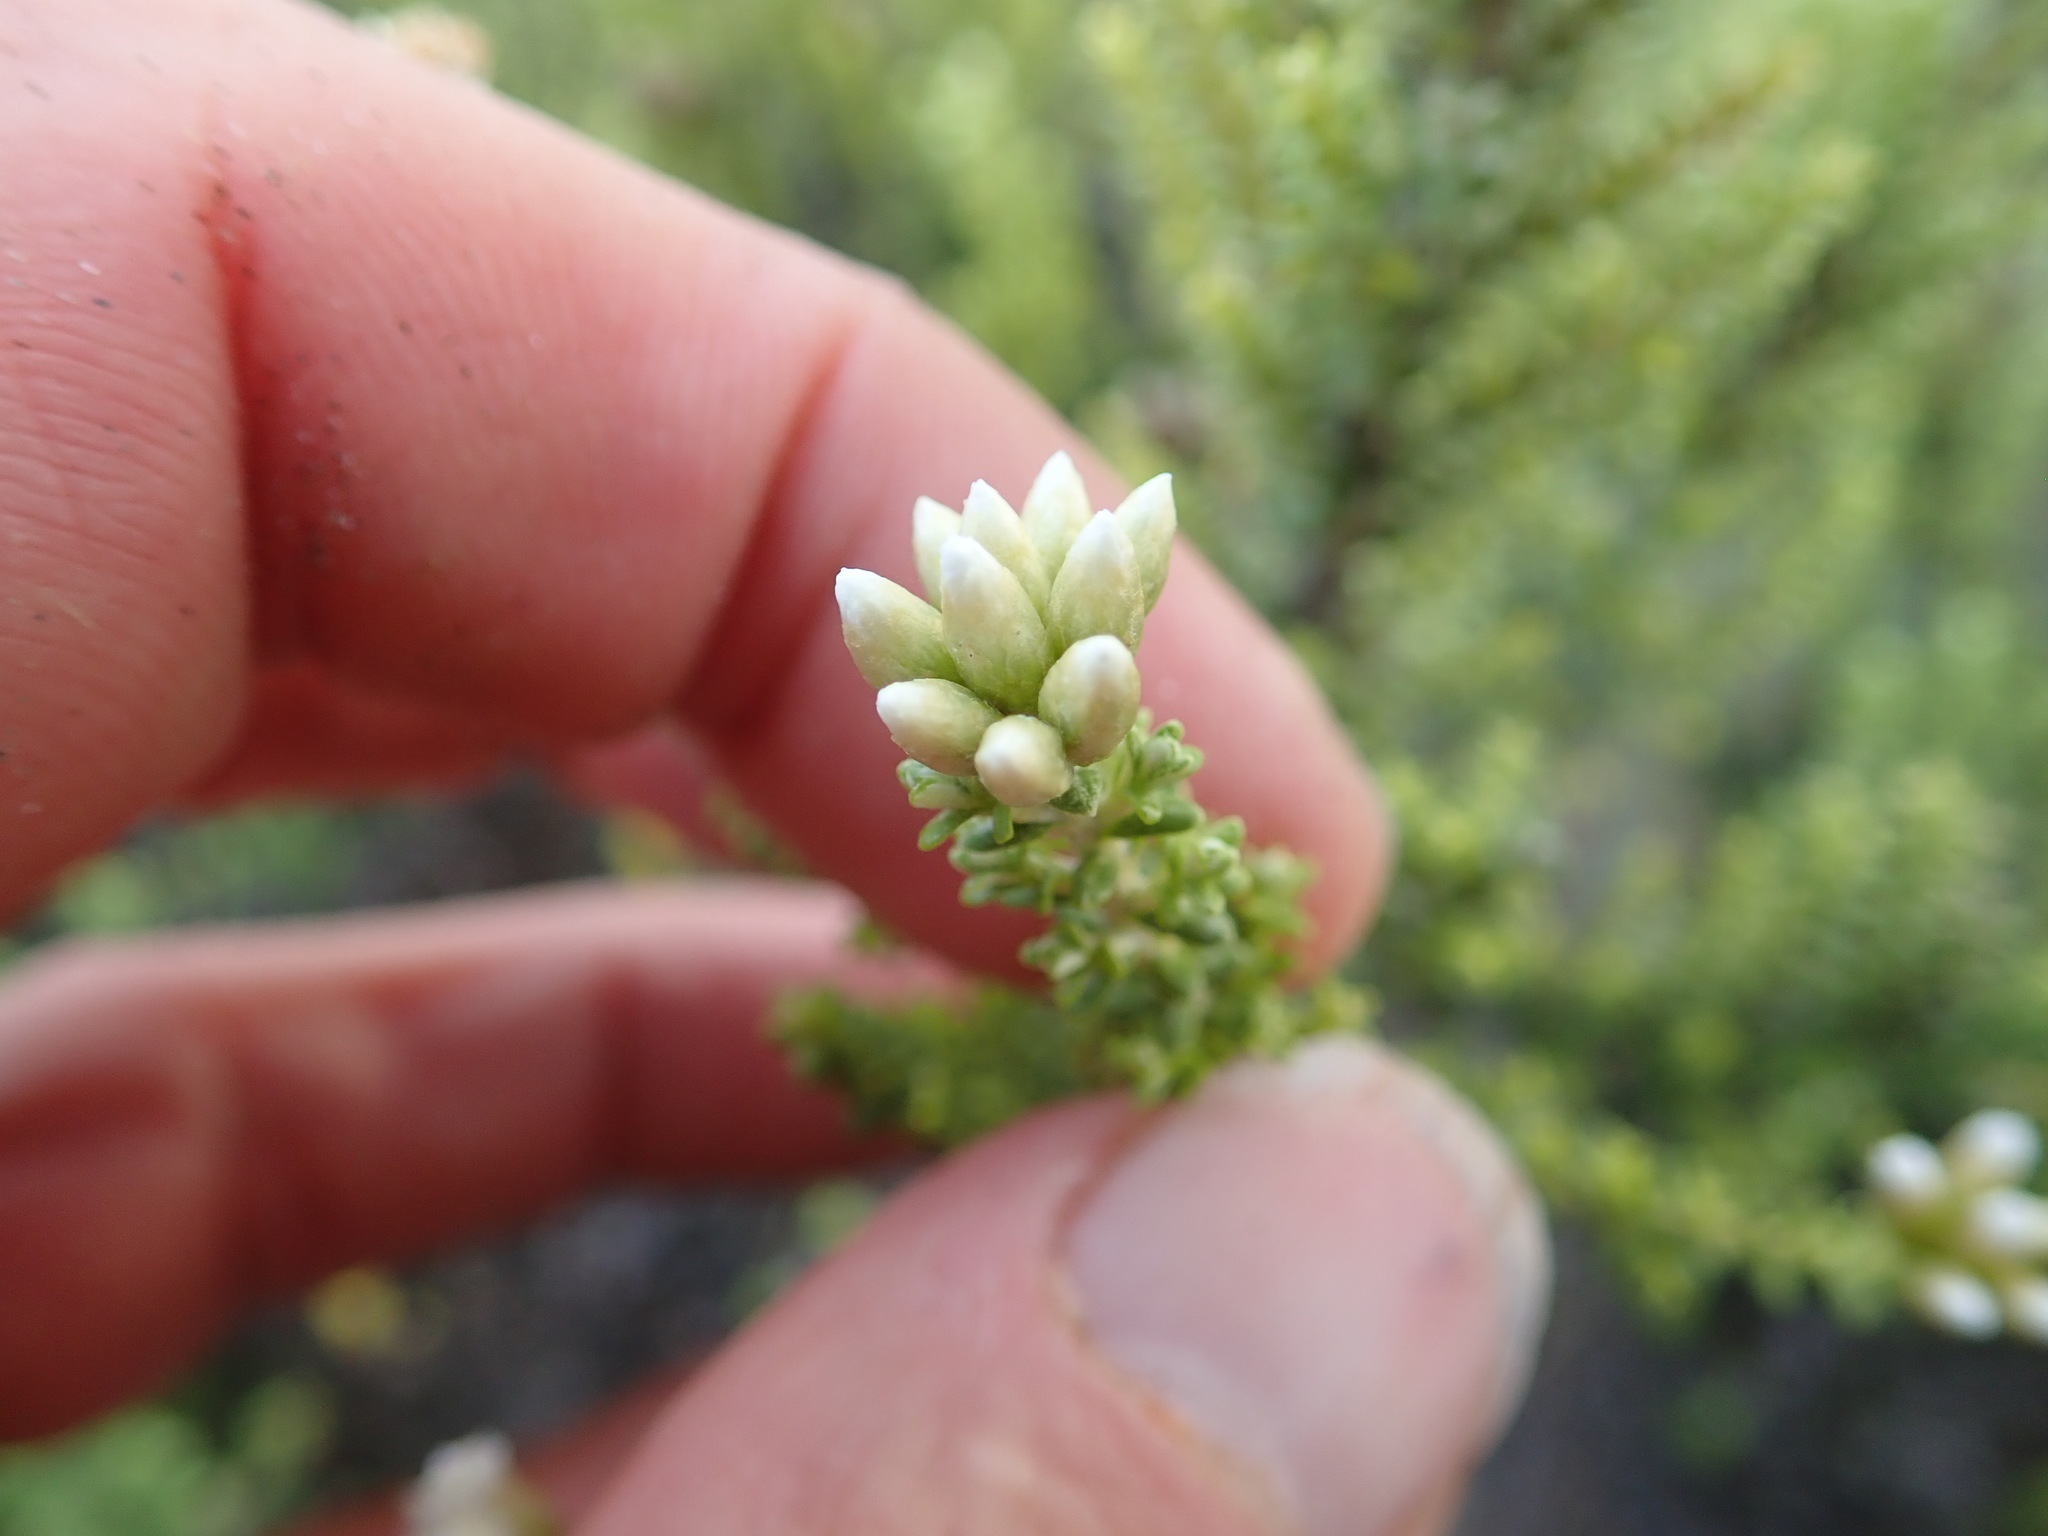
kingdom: Plantae
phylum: Tracheophyta
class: Magnoliopsida
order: Asterales
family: Asteraceae
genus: Ozothamnus
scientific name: Ozothamnus leptophyllus
